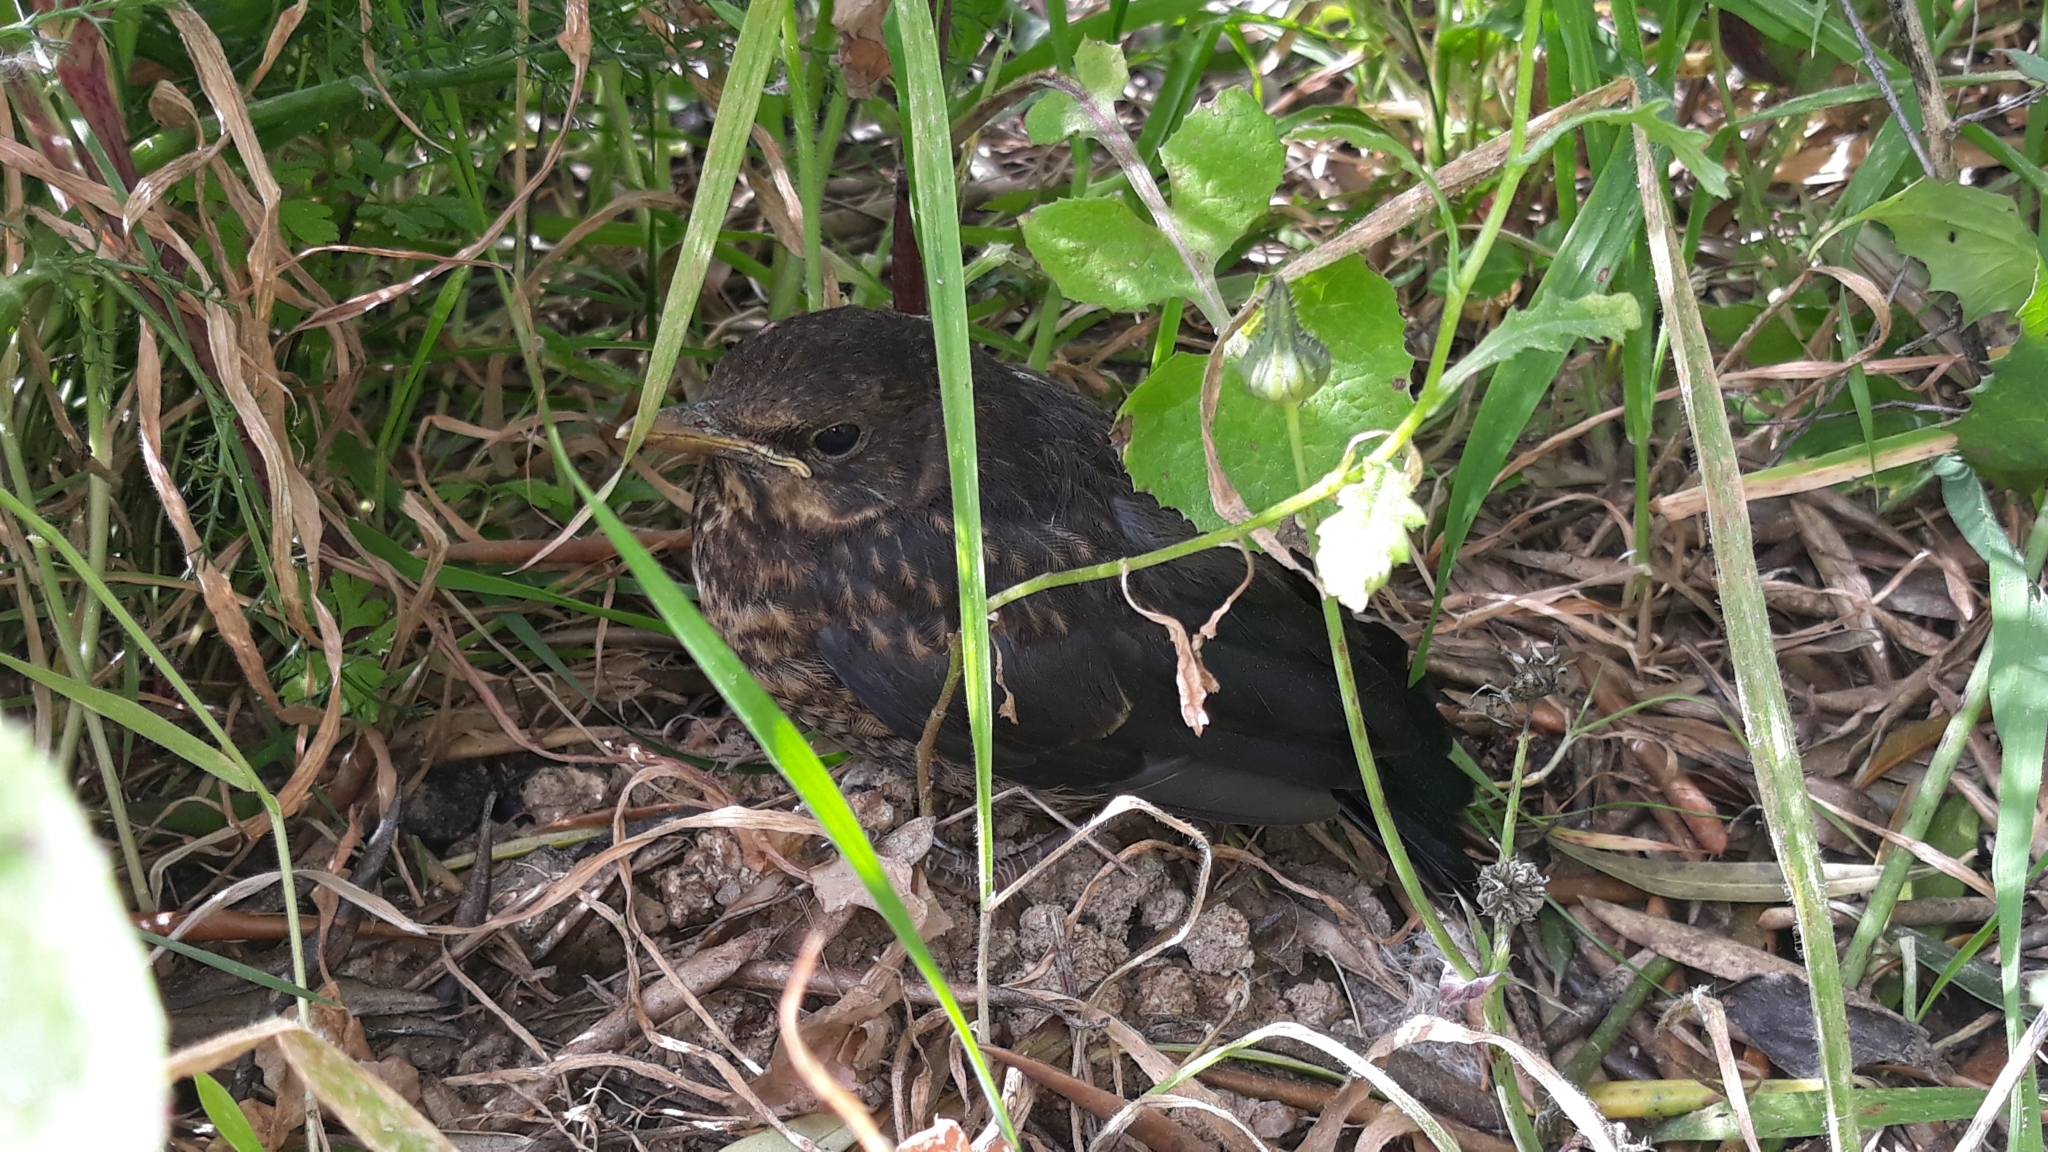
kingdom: Animalia
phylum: Chordata
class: Aves
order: Passeriformes
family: Turdidae
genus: Turdus
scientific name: Turdus merula
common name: Common blackbird
